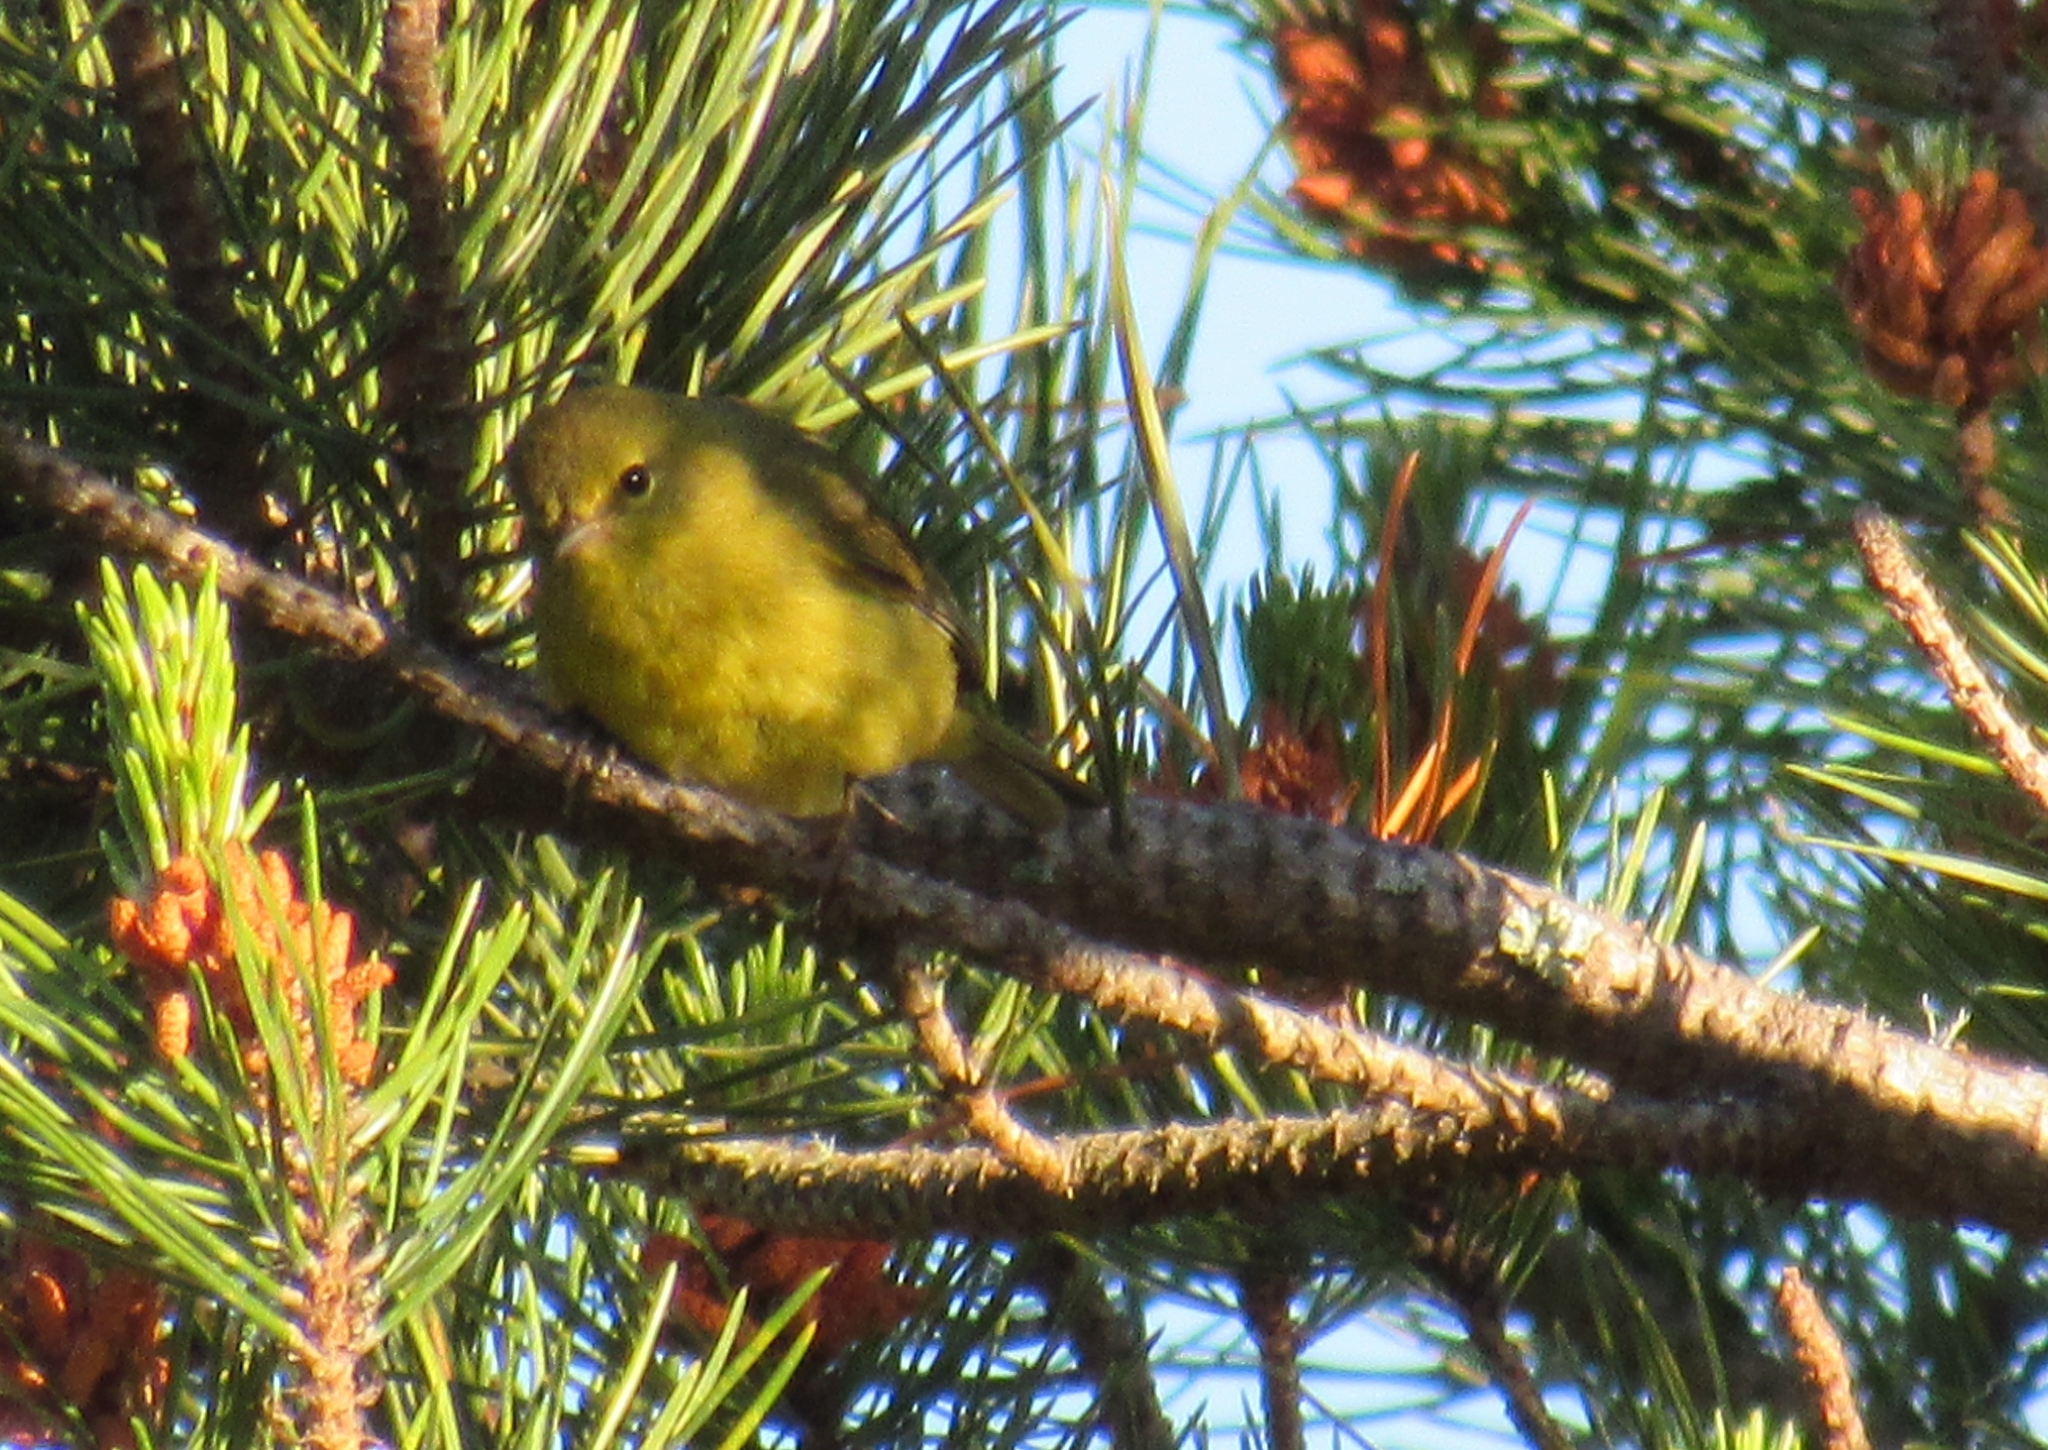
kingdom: Animalia
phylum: Chordata
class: Aves
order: Passeriformes
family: Parulidae
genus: Leiothlypis
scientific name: Leiothlypis celata
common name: Orange-crowned warbler
